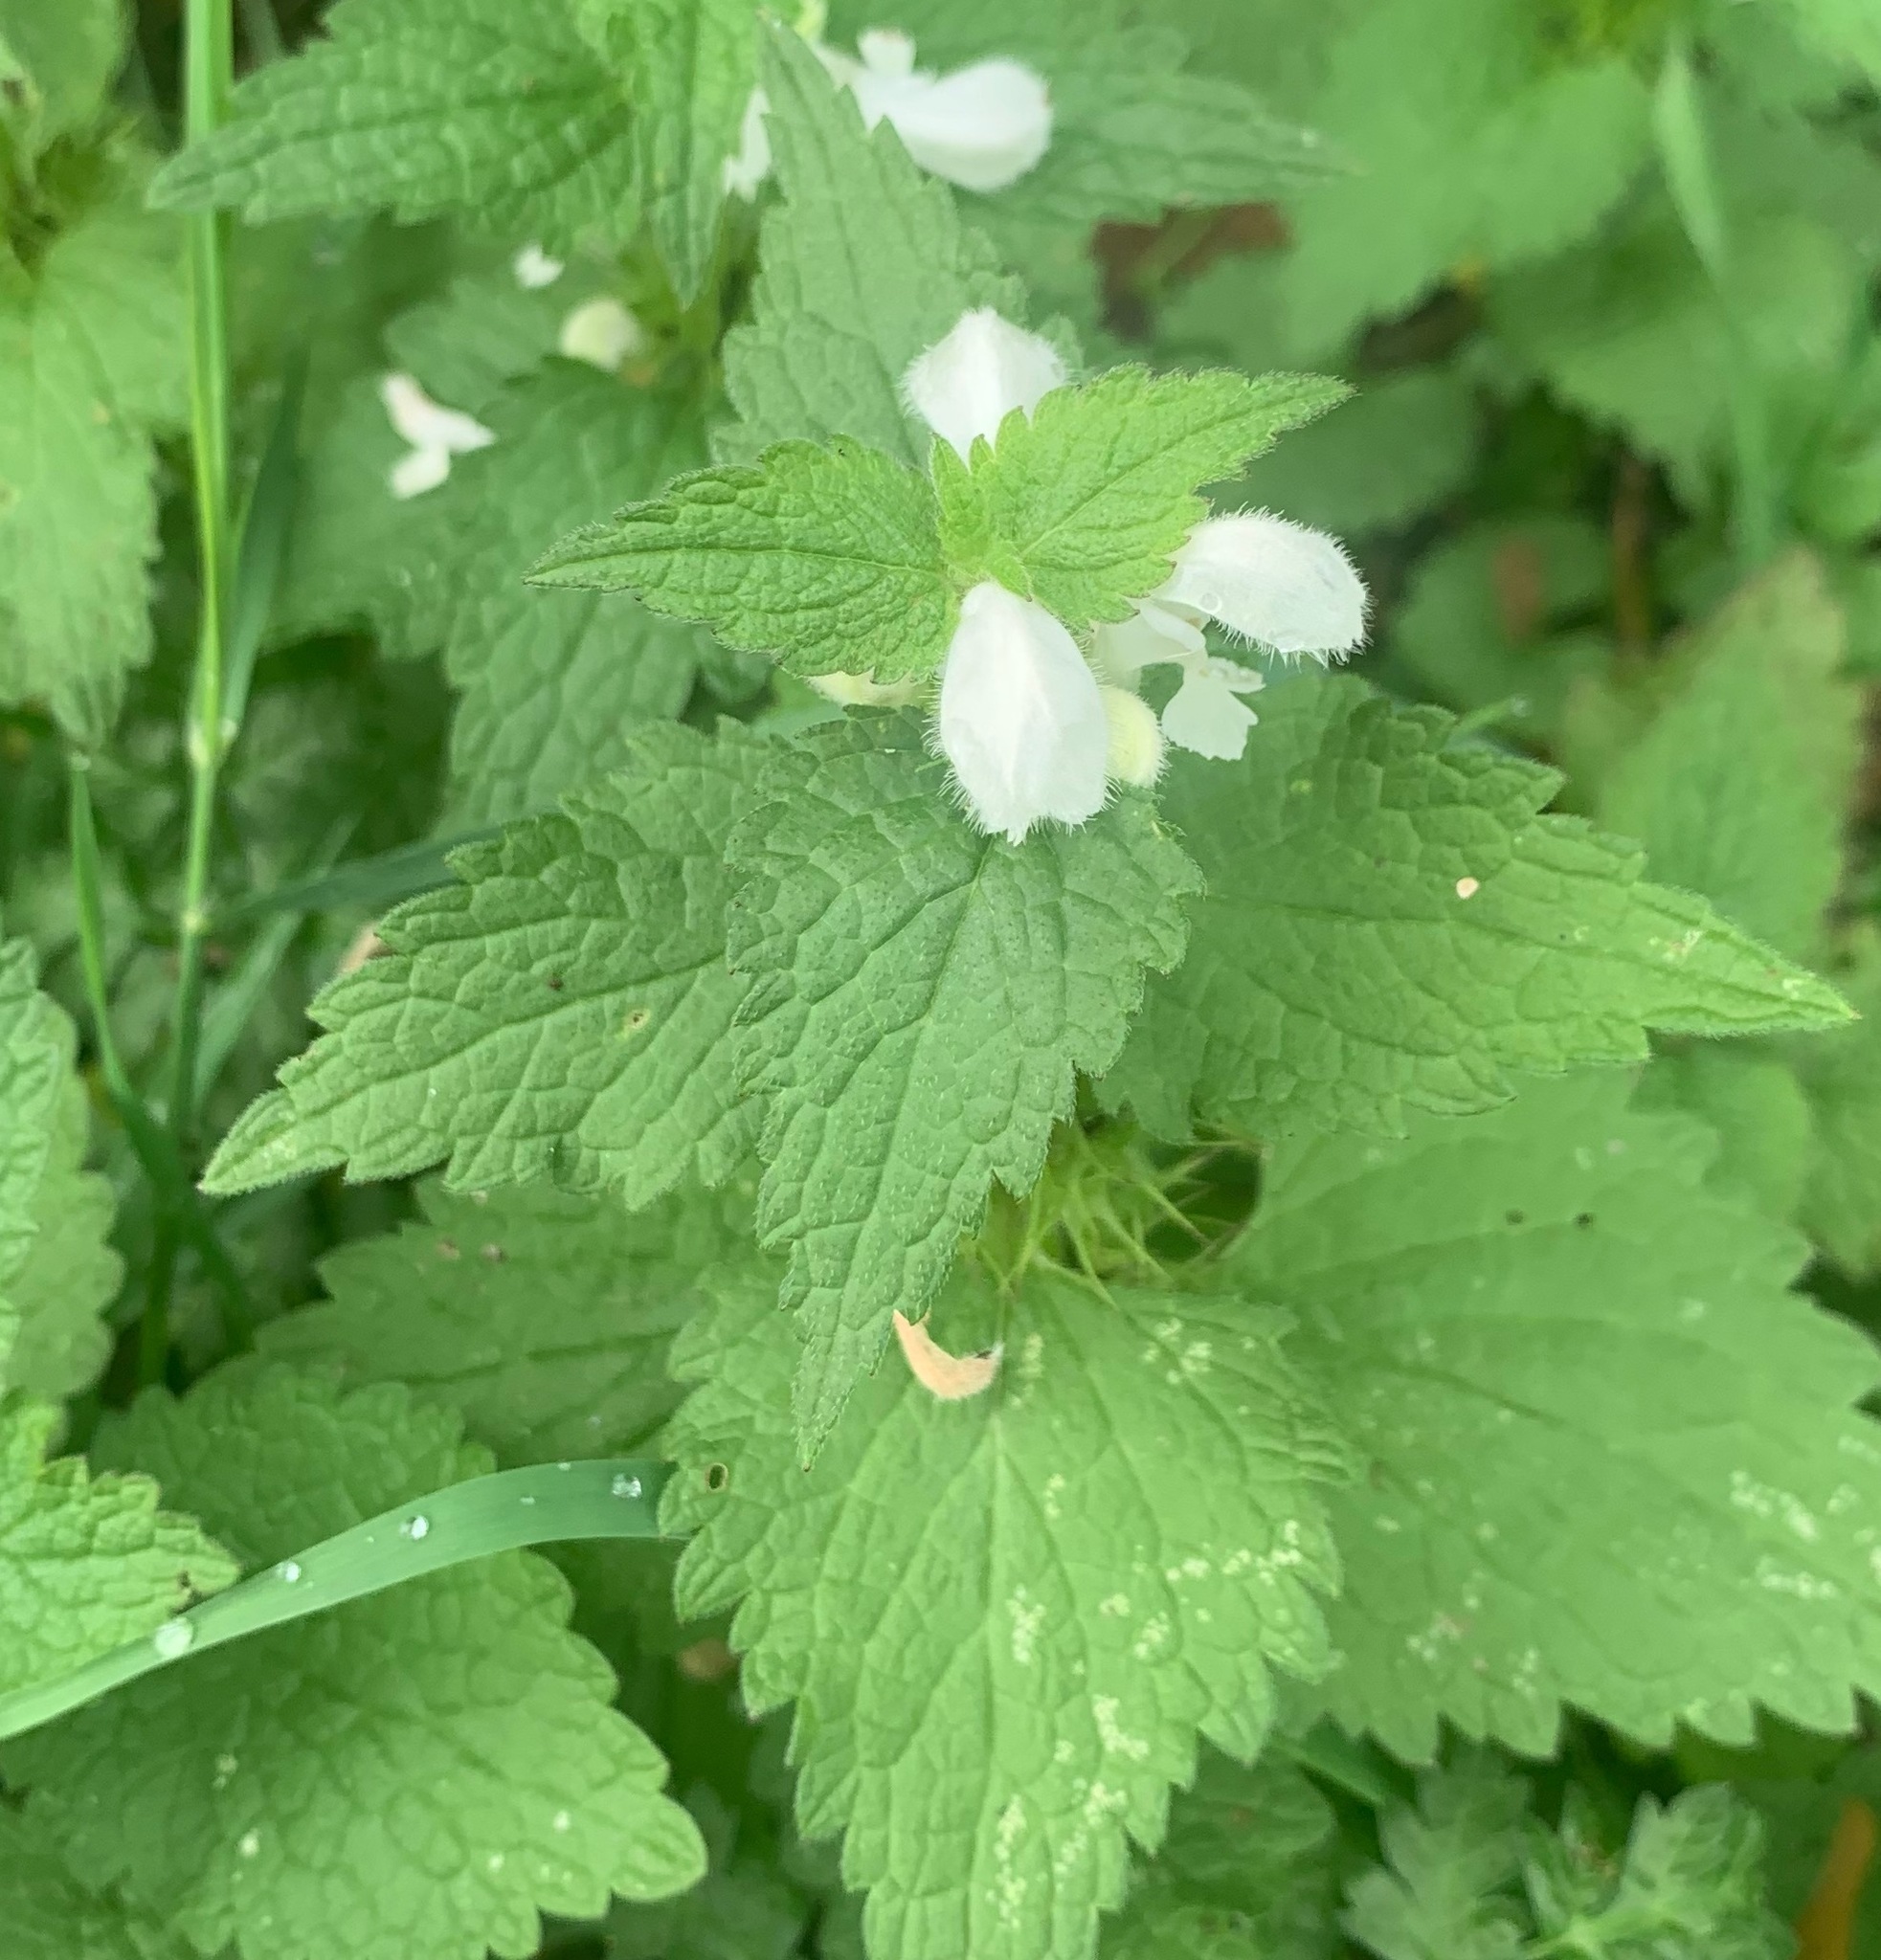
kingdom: Plantae
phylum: Tracheophyta
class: Magnoliopsida
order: Lamiales
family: Lamiaceae
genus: Lamium
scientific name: Lamium album
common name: White dead-nettle
